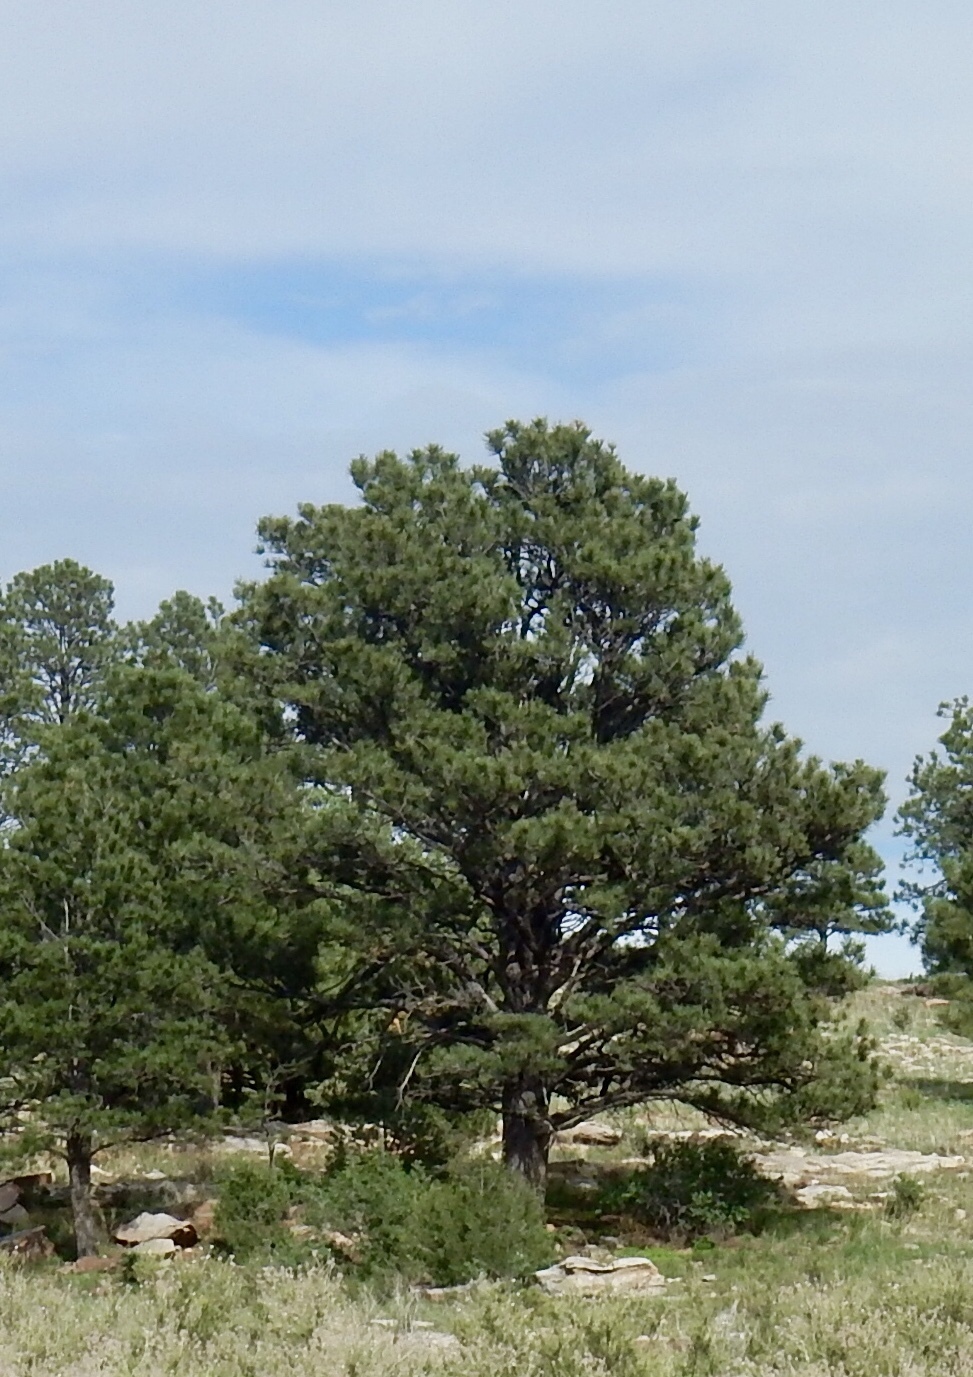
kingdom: Plantae
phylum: Tracheophyta
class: Pinopsida
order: Pinales
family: Pinaceae
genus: Pinus
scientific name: Pinus ponderosa
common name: Western yellow-pine
